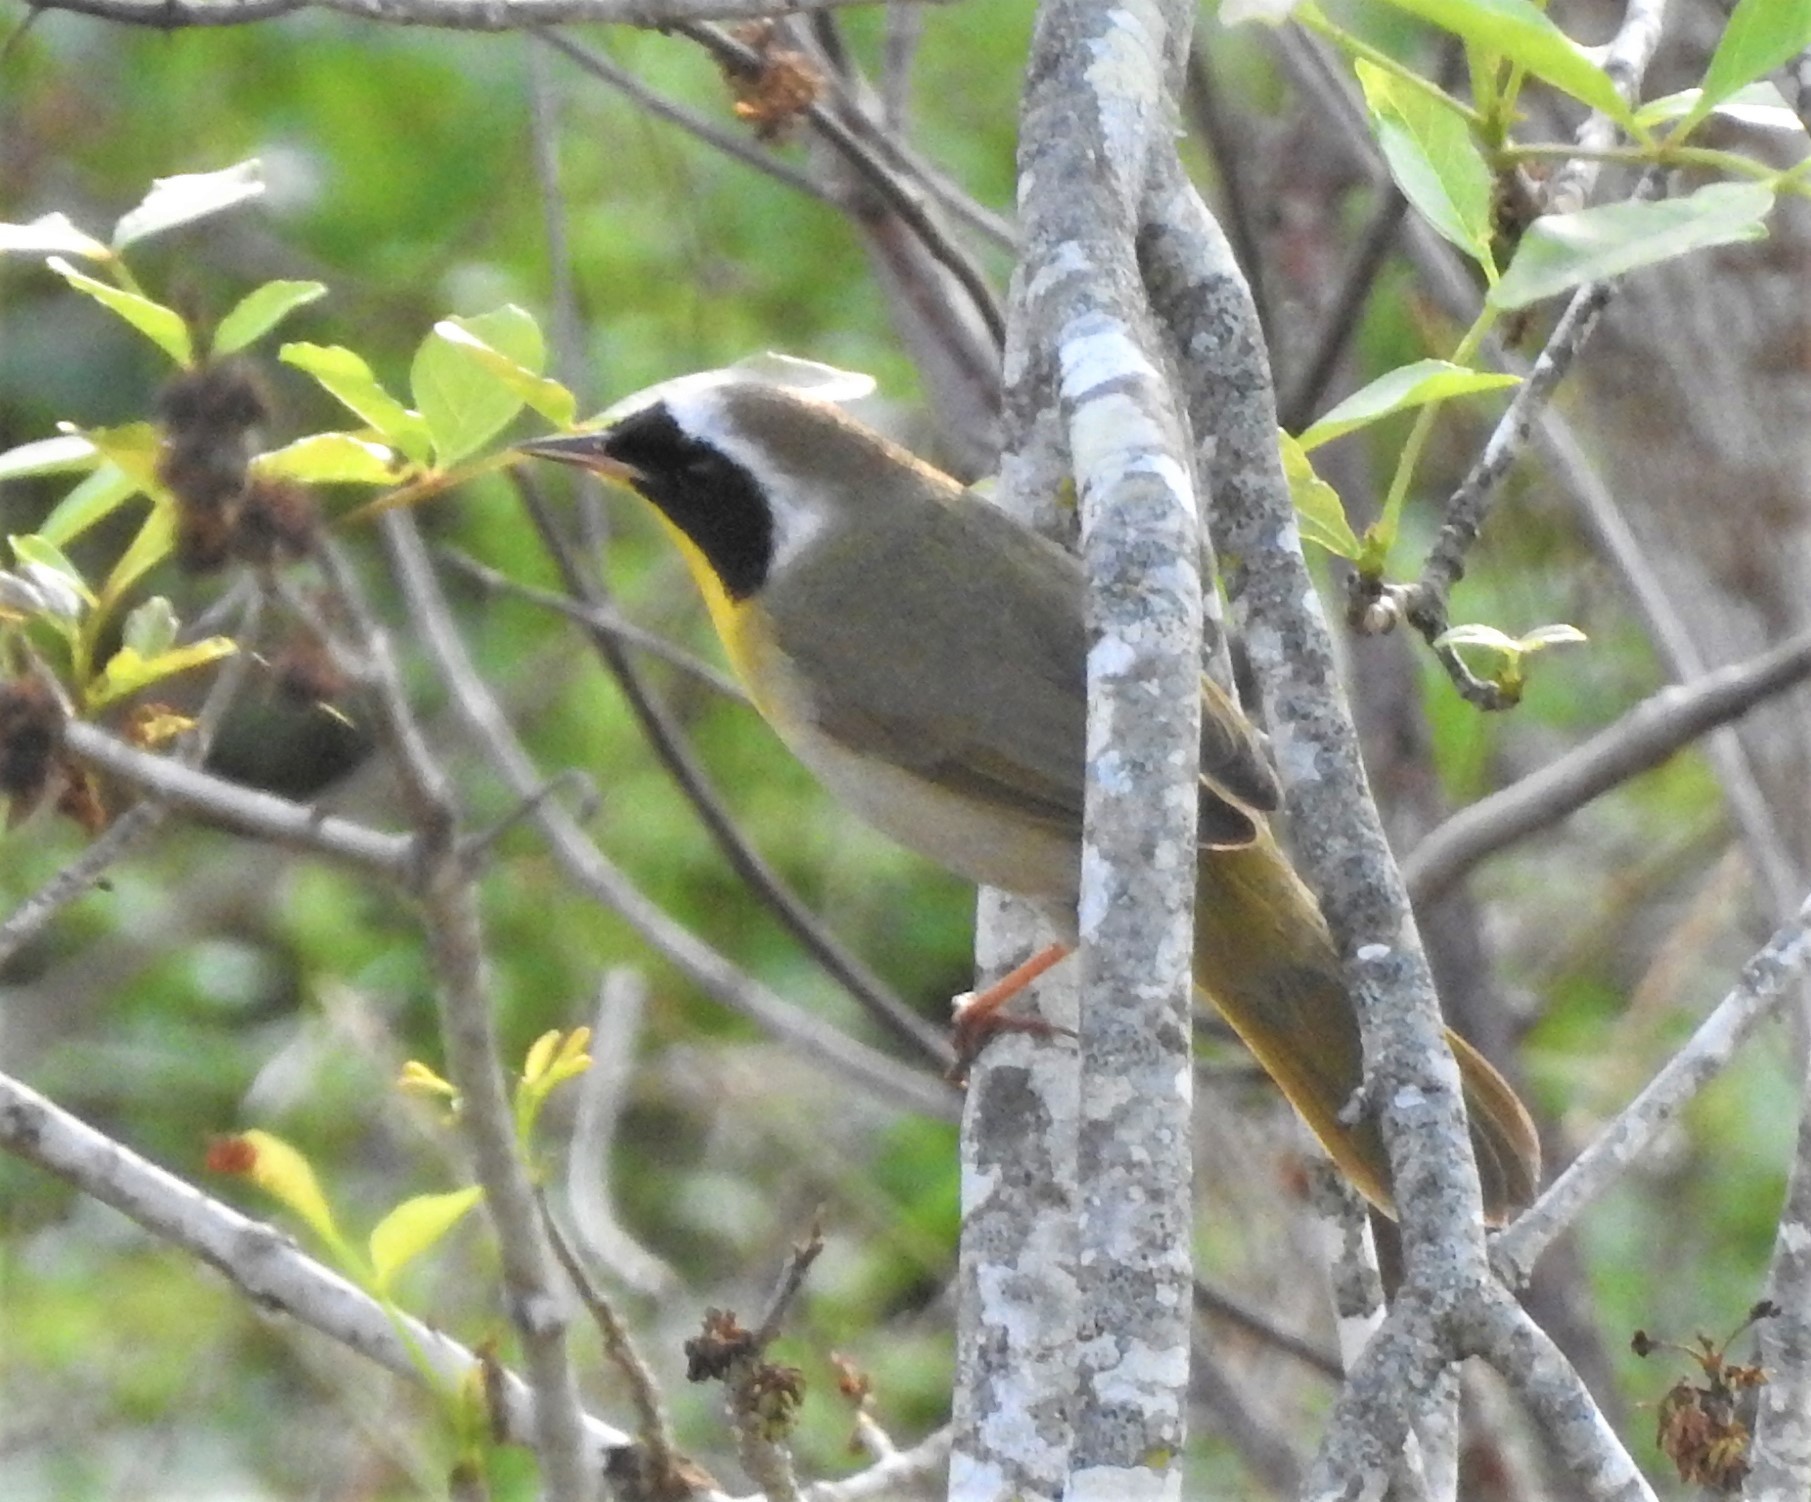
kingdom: Animalia
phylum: Chordata
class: Aves
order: Passeriformes
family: Parulidae
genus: Geothlypis
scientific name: Geothlypis trichas
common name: Common yellowthroat
